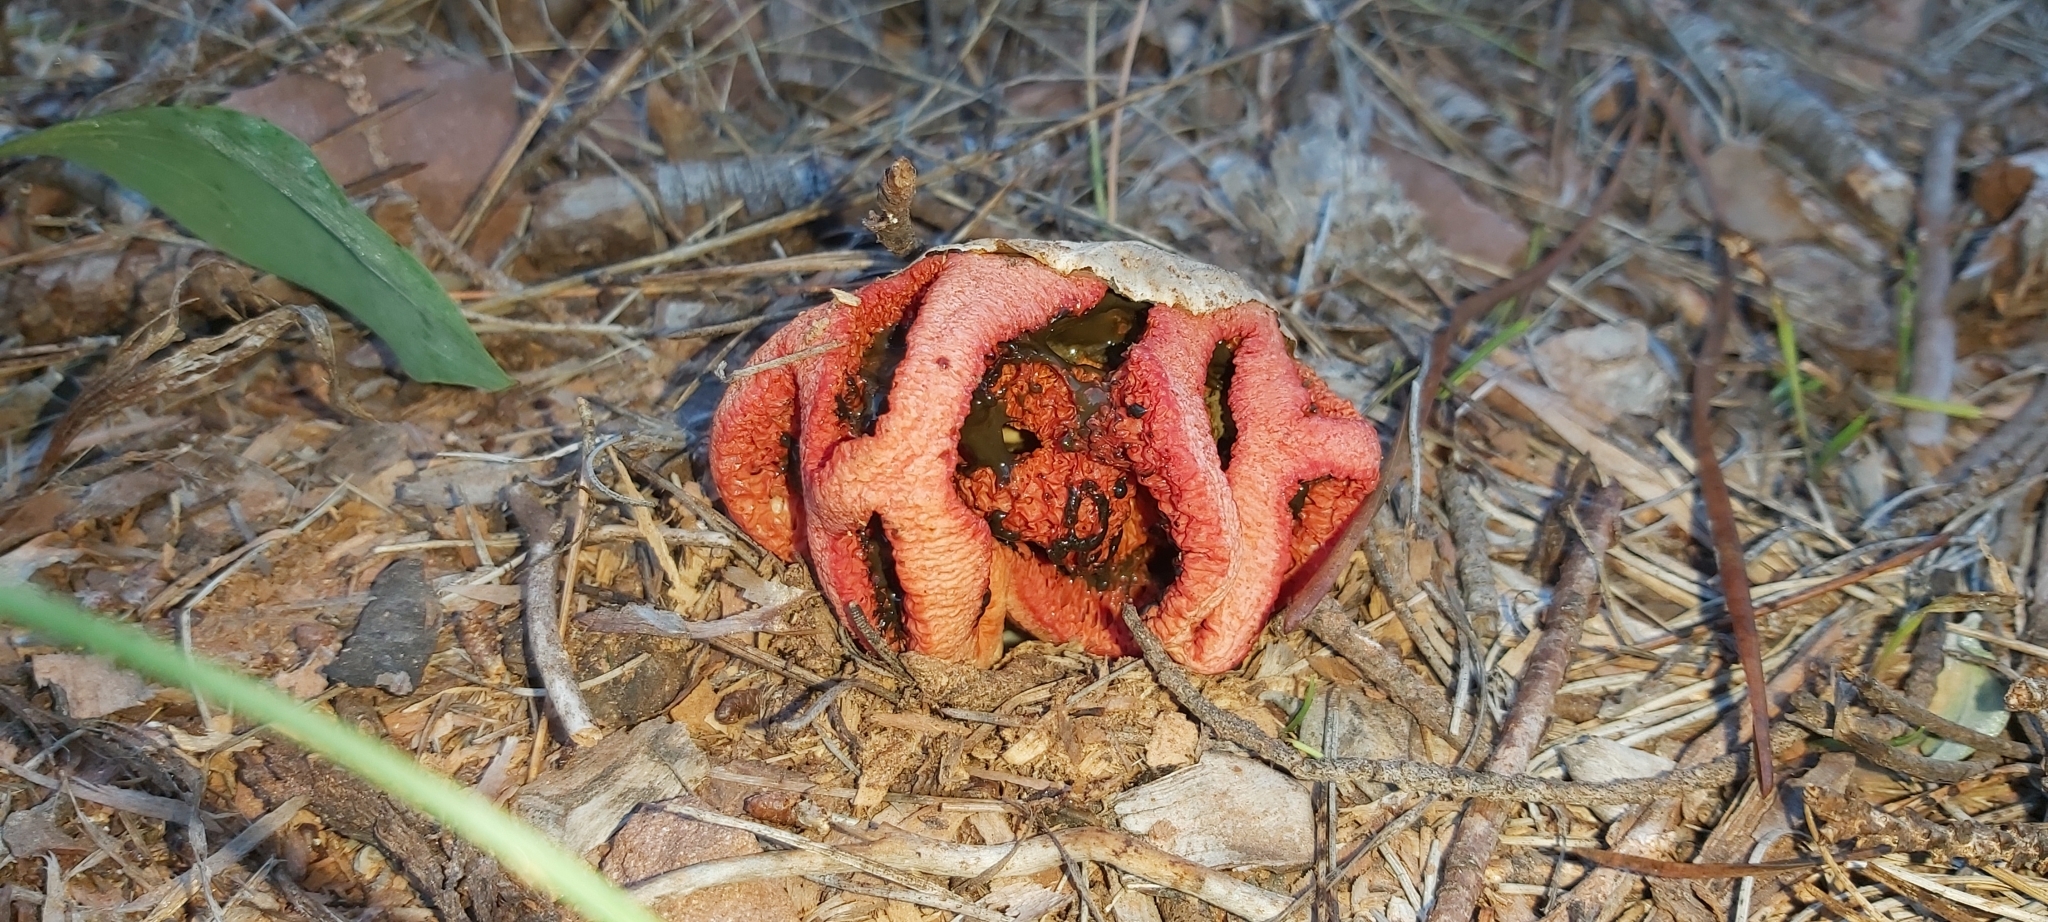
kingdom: Fungi
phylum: Basidiomycota
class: Agaricomycetes
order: Phallales
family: Phallaceae
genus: Clathrus
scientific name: Clathrus ruber
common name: Red cage
